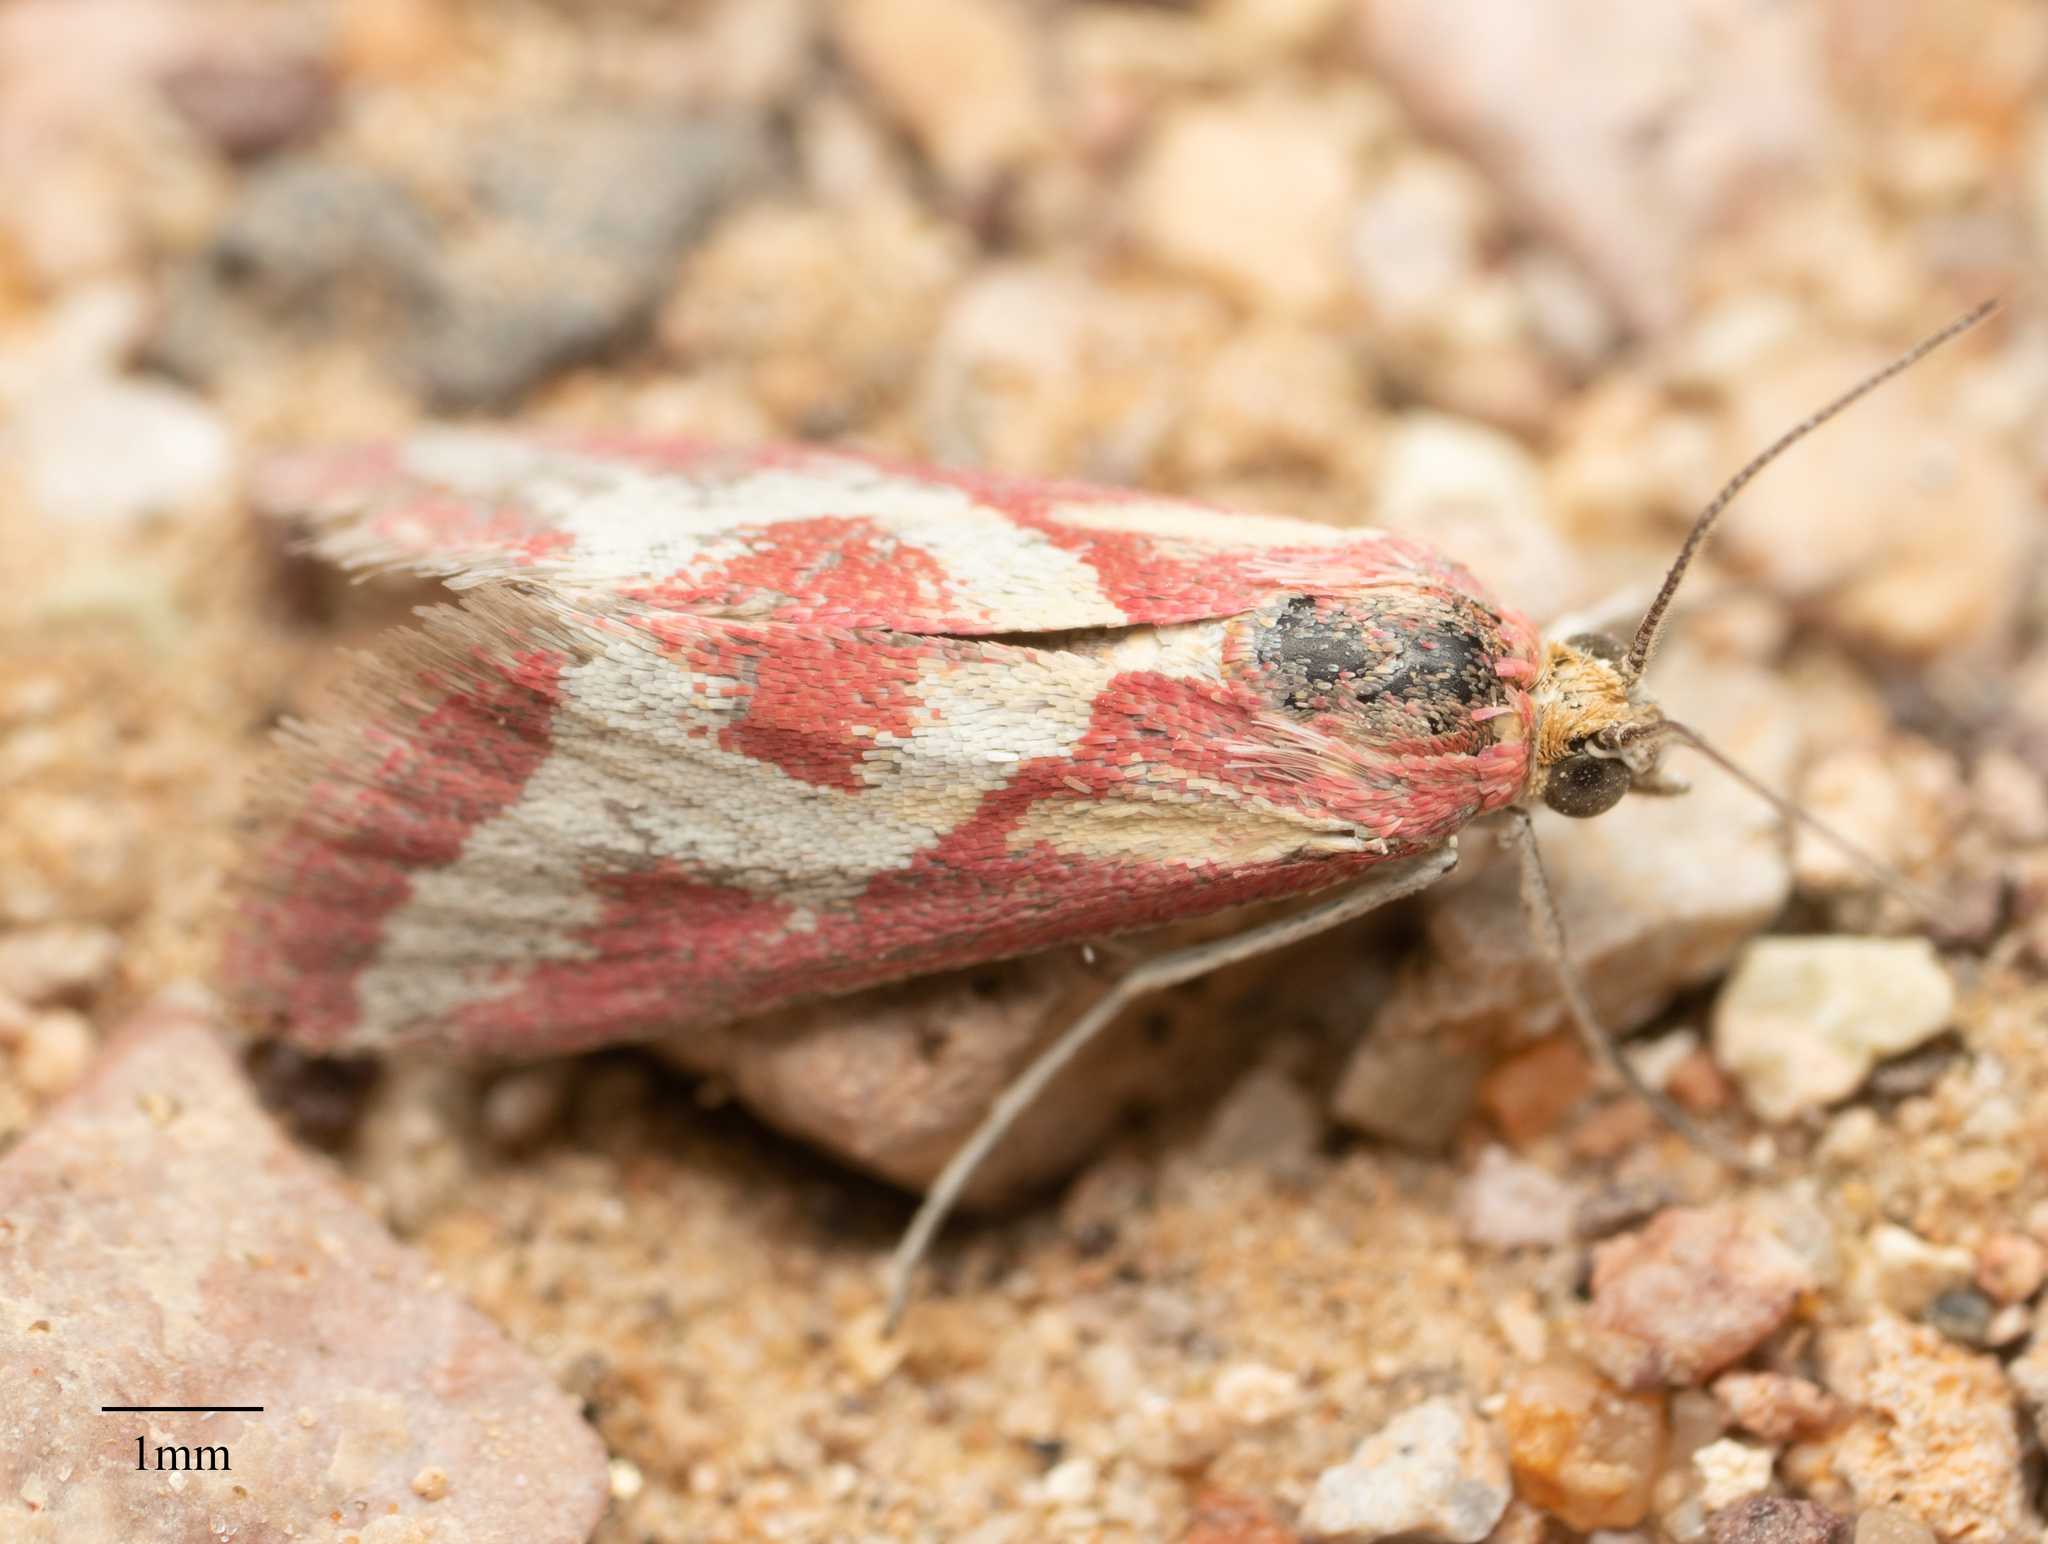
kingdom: Animalia
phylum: Arthropoda
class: Insecta
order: Lepidoptera
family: Crambidae
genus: Noctueliopsis
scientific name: Noctueliopsis aridalis
